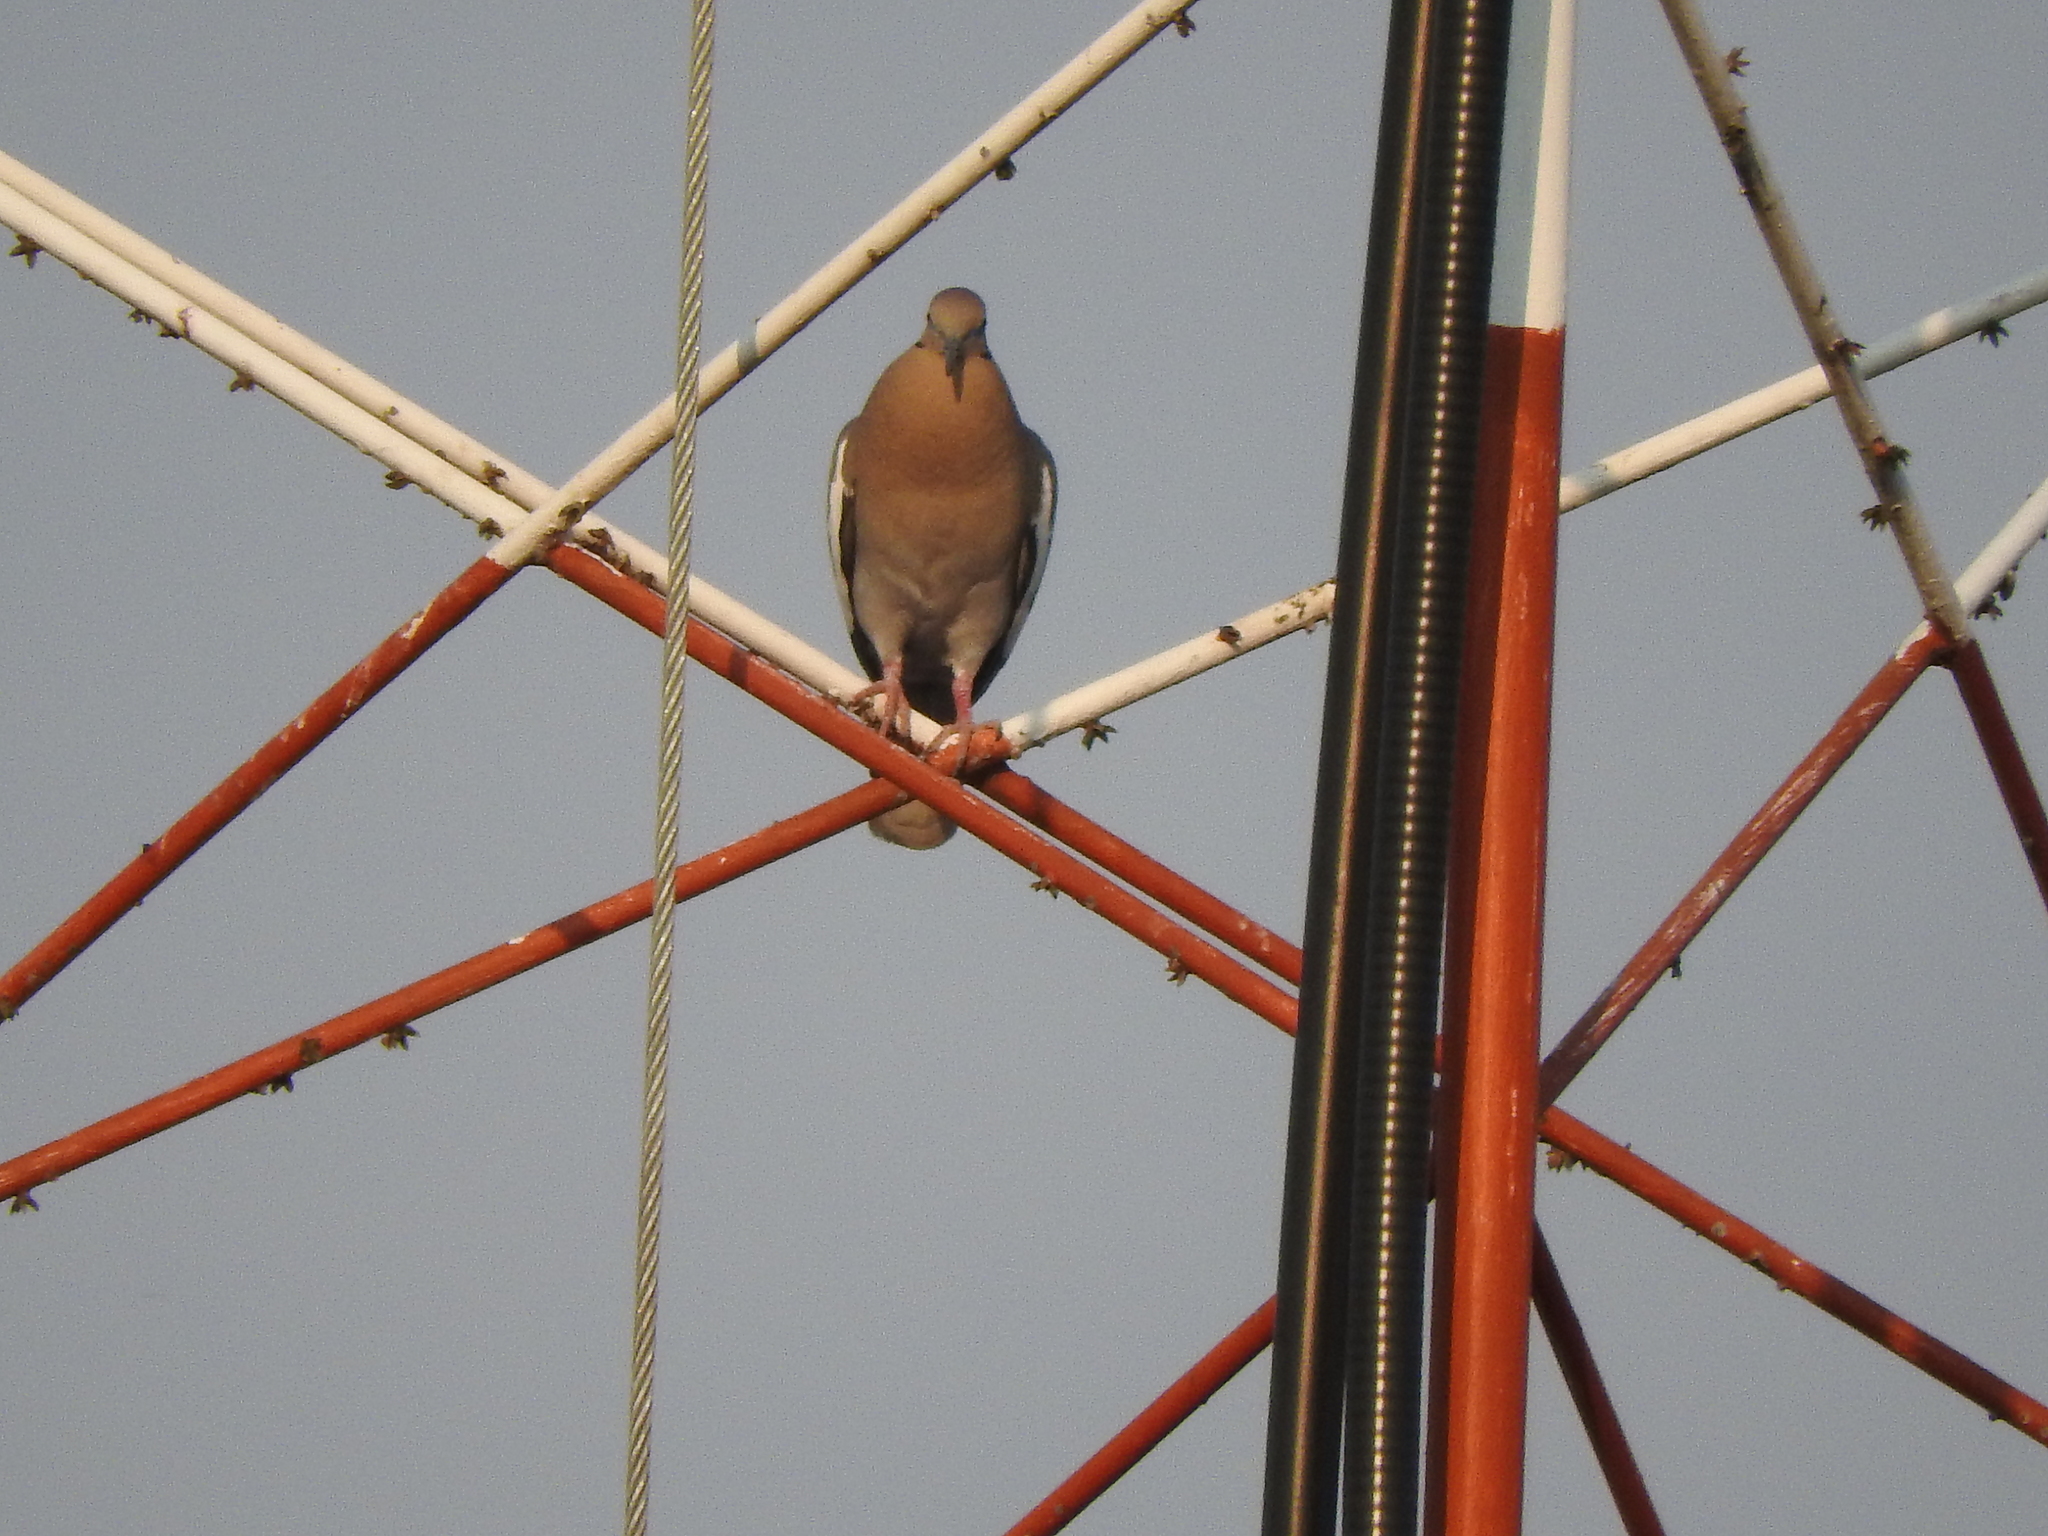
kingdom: Animalia
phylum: Chordata
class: Aves
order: Columbiformes
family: Columbidae
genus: Zenaida
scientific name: Zenaida asiatica
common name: White-winged dove
